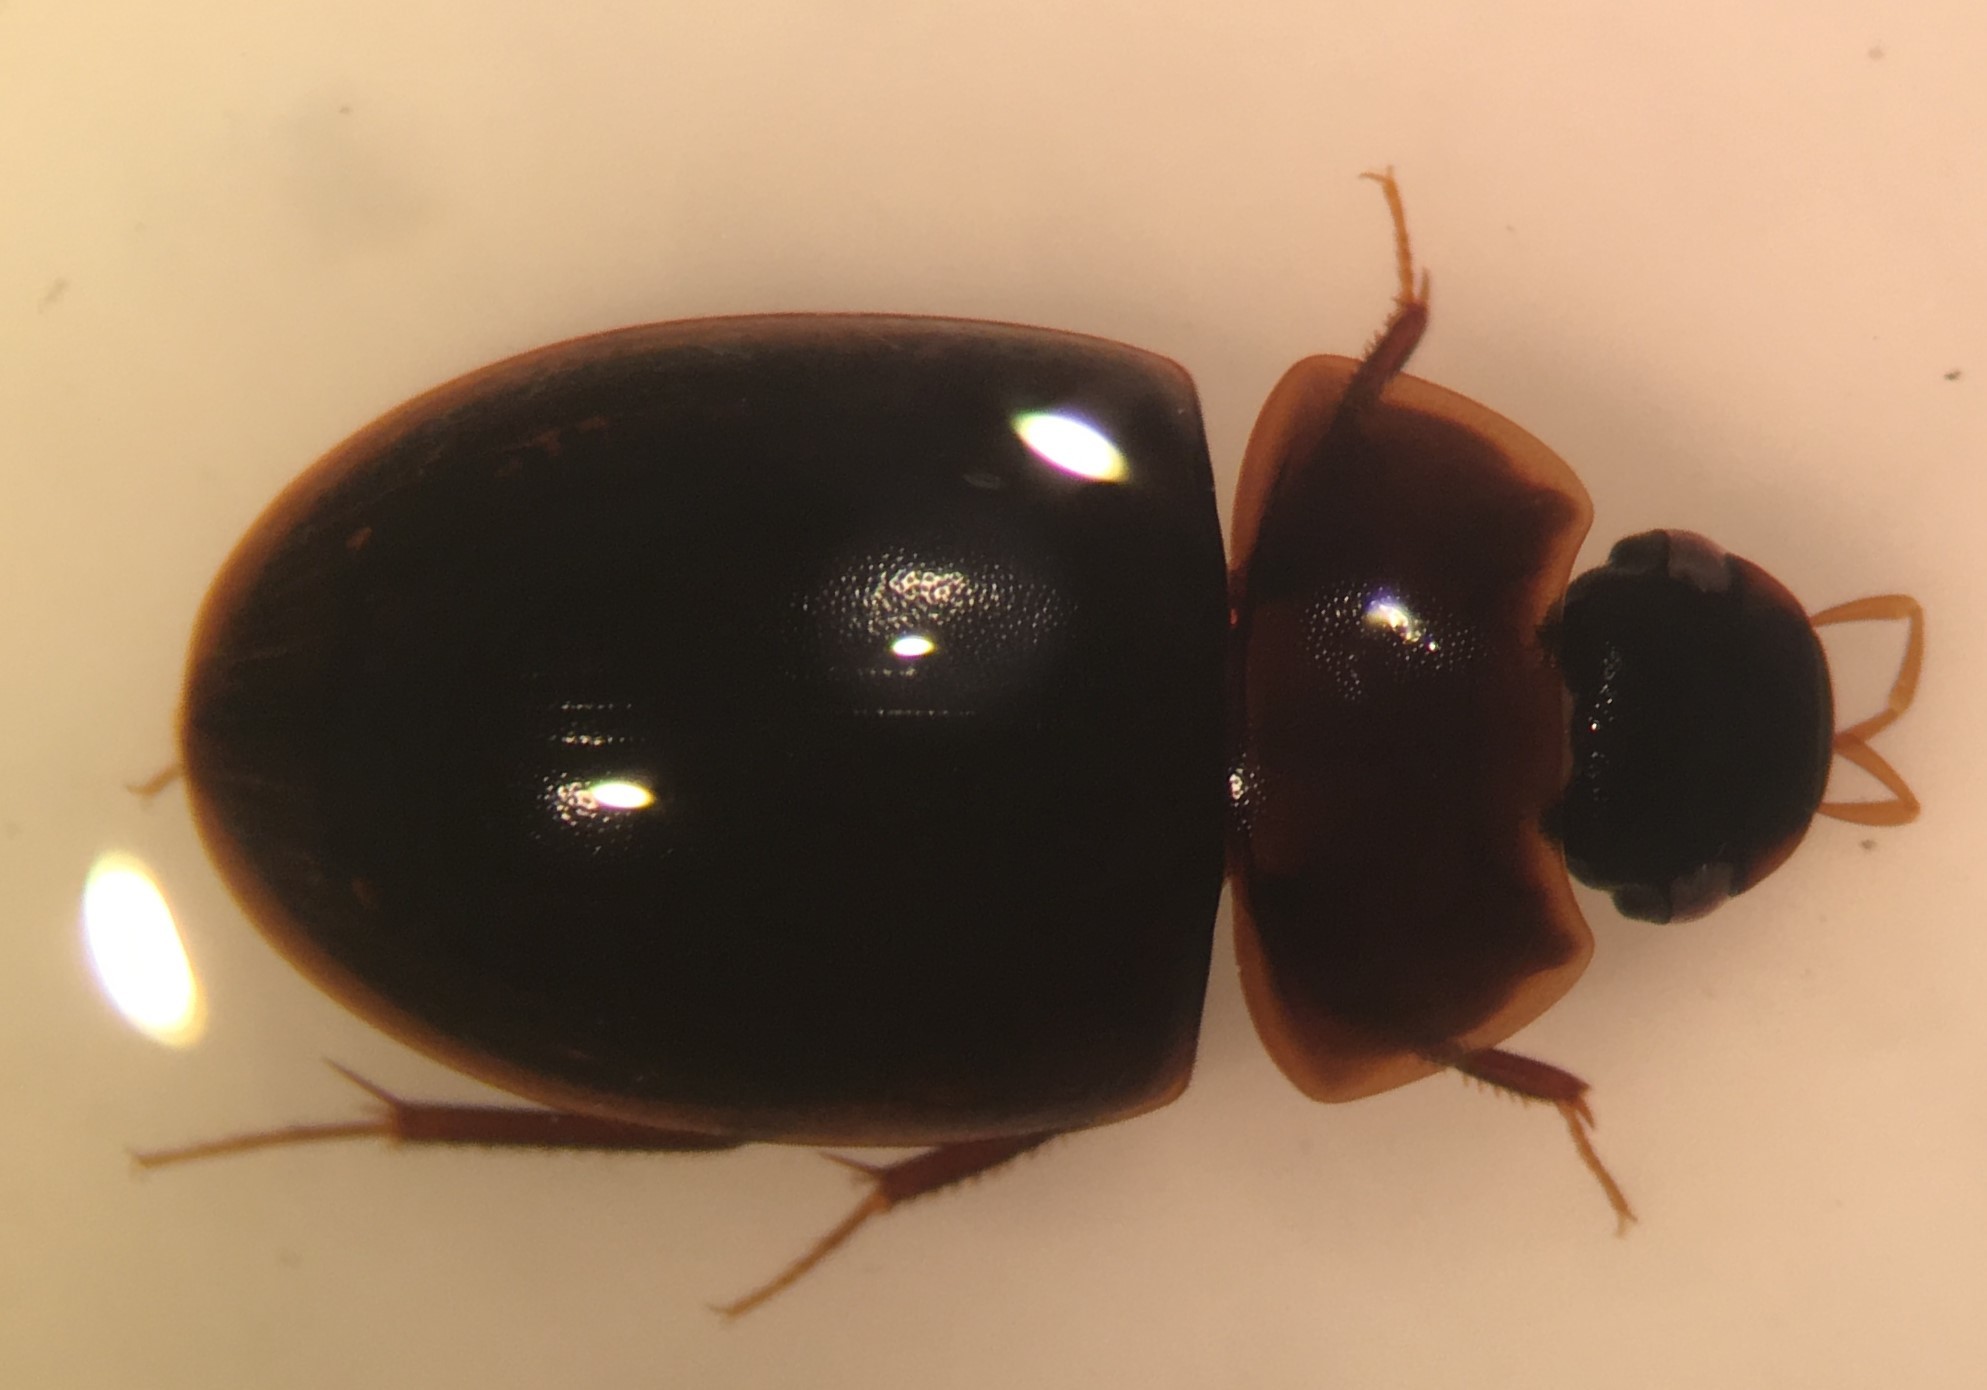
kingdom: Animalia
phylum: Arthropoda
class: Insecta
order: Coleoptera
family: Hydrophilidae
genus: Cymbiodyta
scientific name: Cymbiodyta chamberlaini
